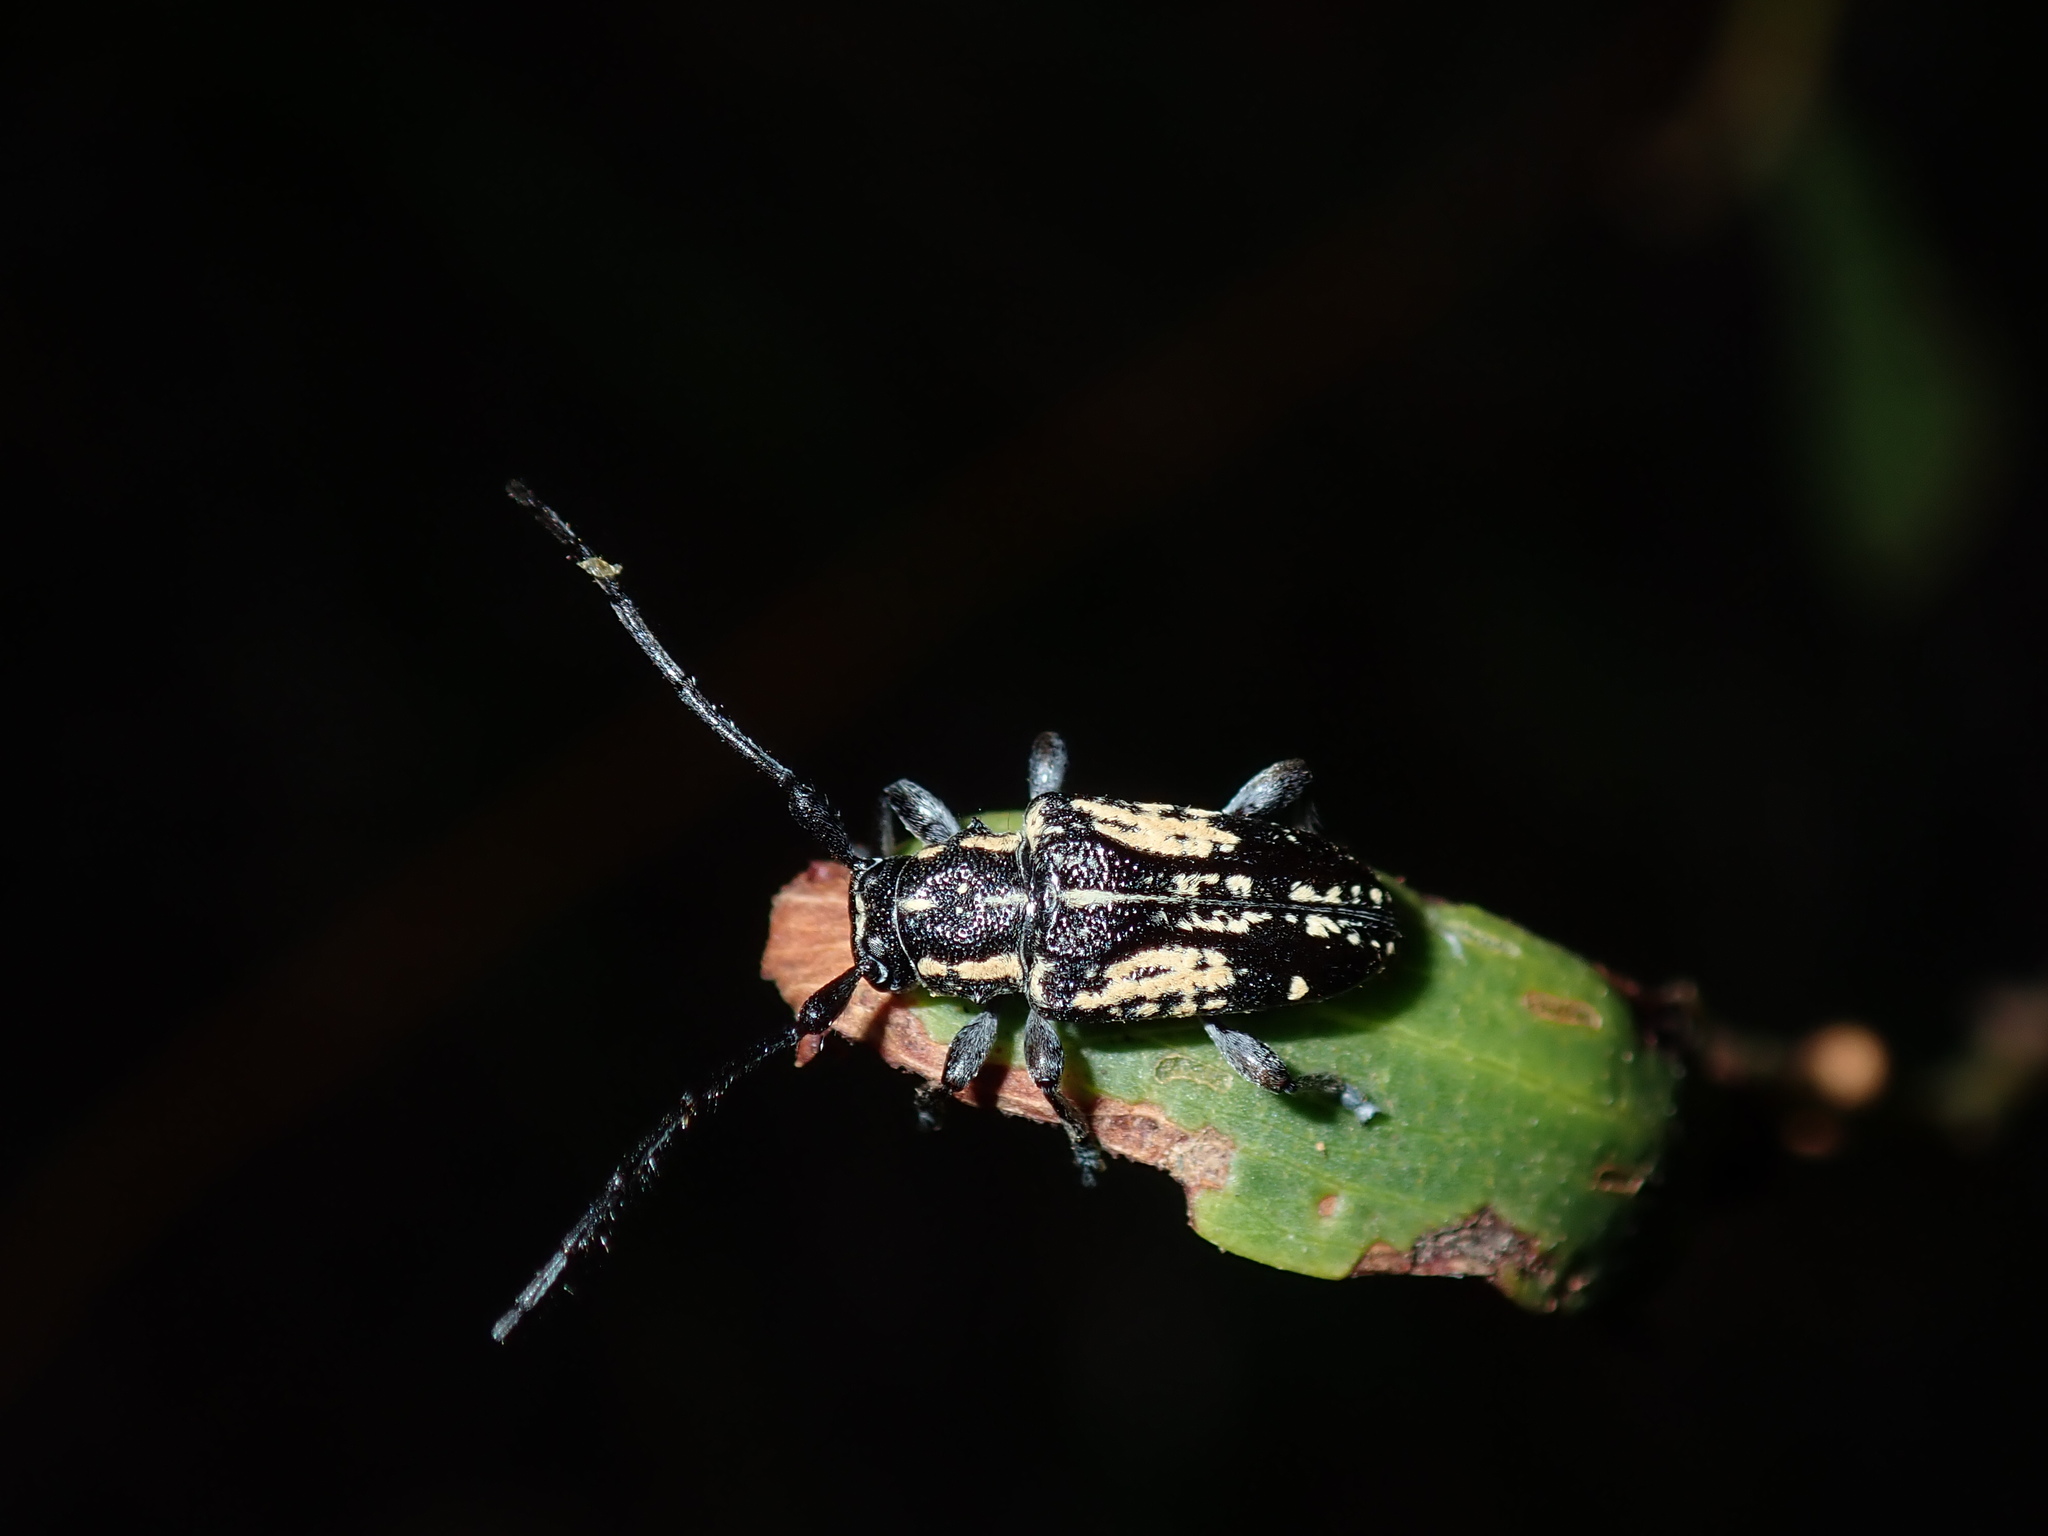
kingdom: Animalia
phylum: Arthropoda
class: Insecta
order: Coleoptera
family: Cerambycidae
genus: Hebecerus
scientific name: Hebecerus crocogaster
